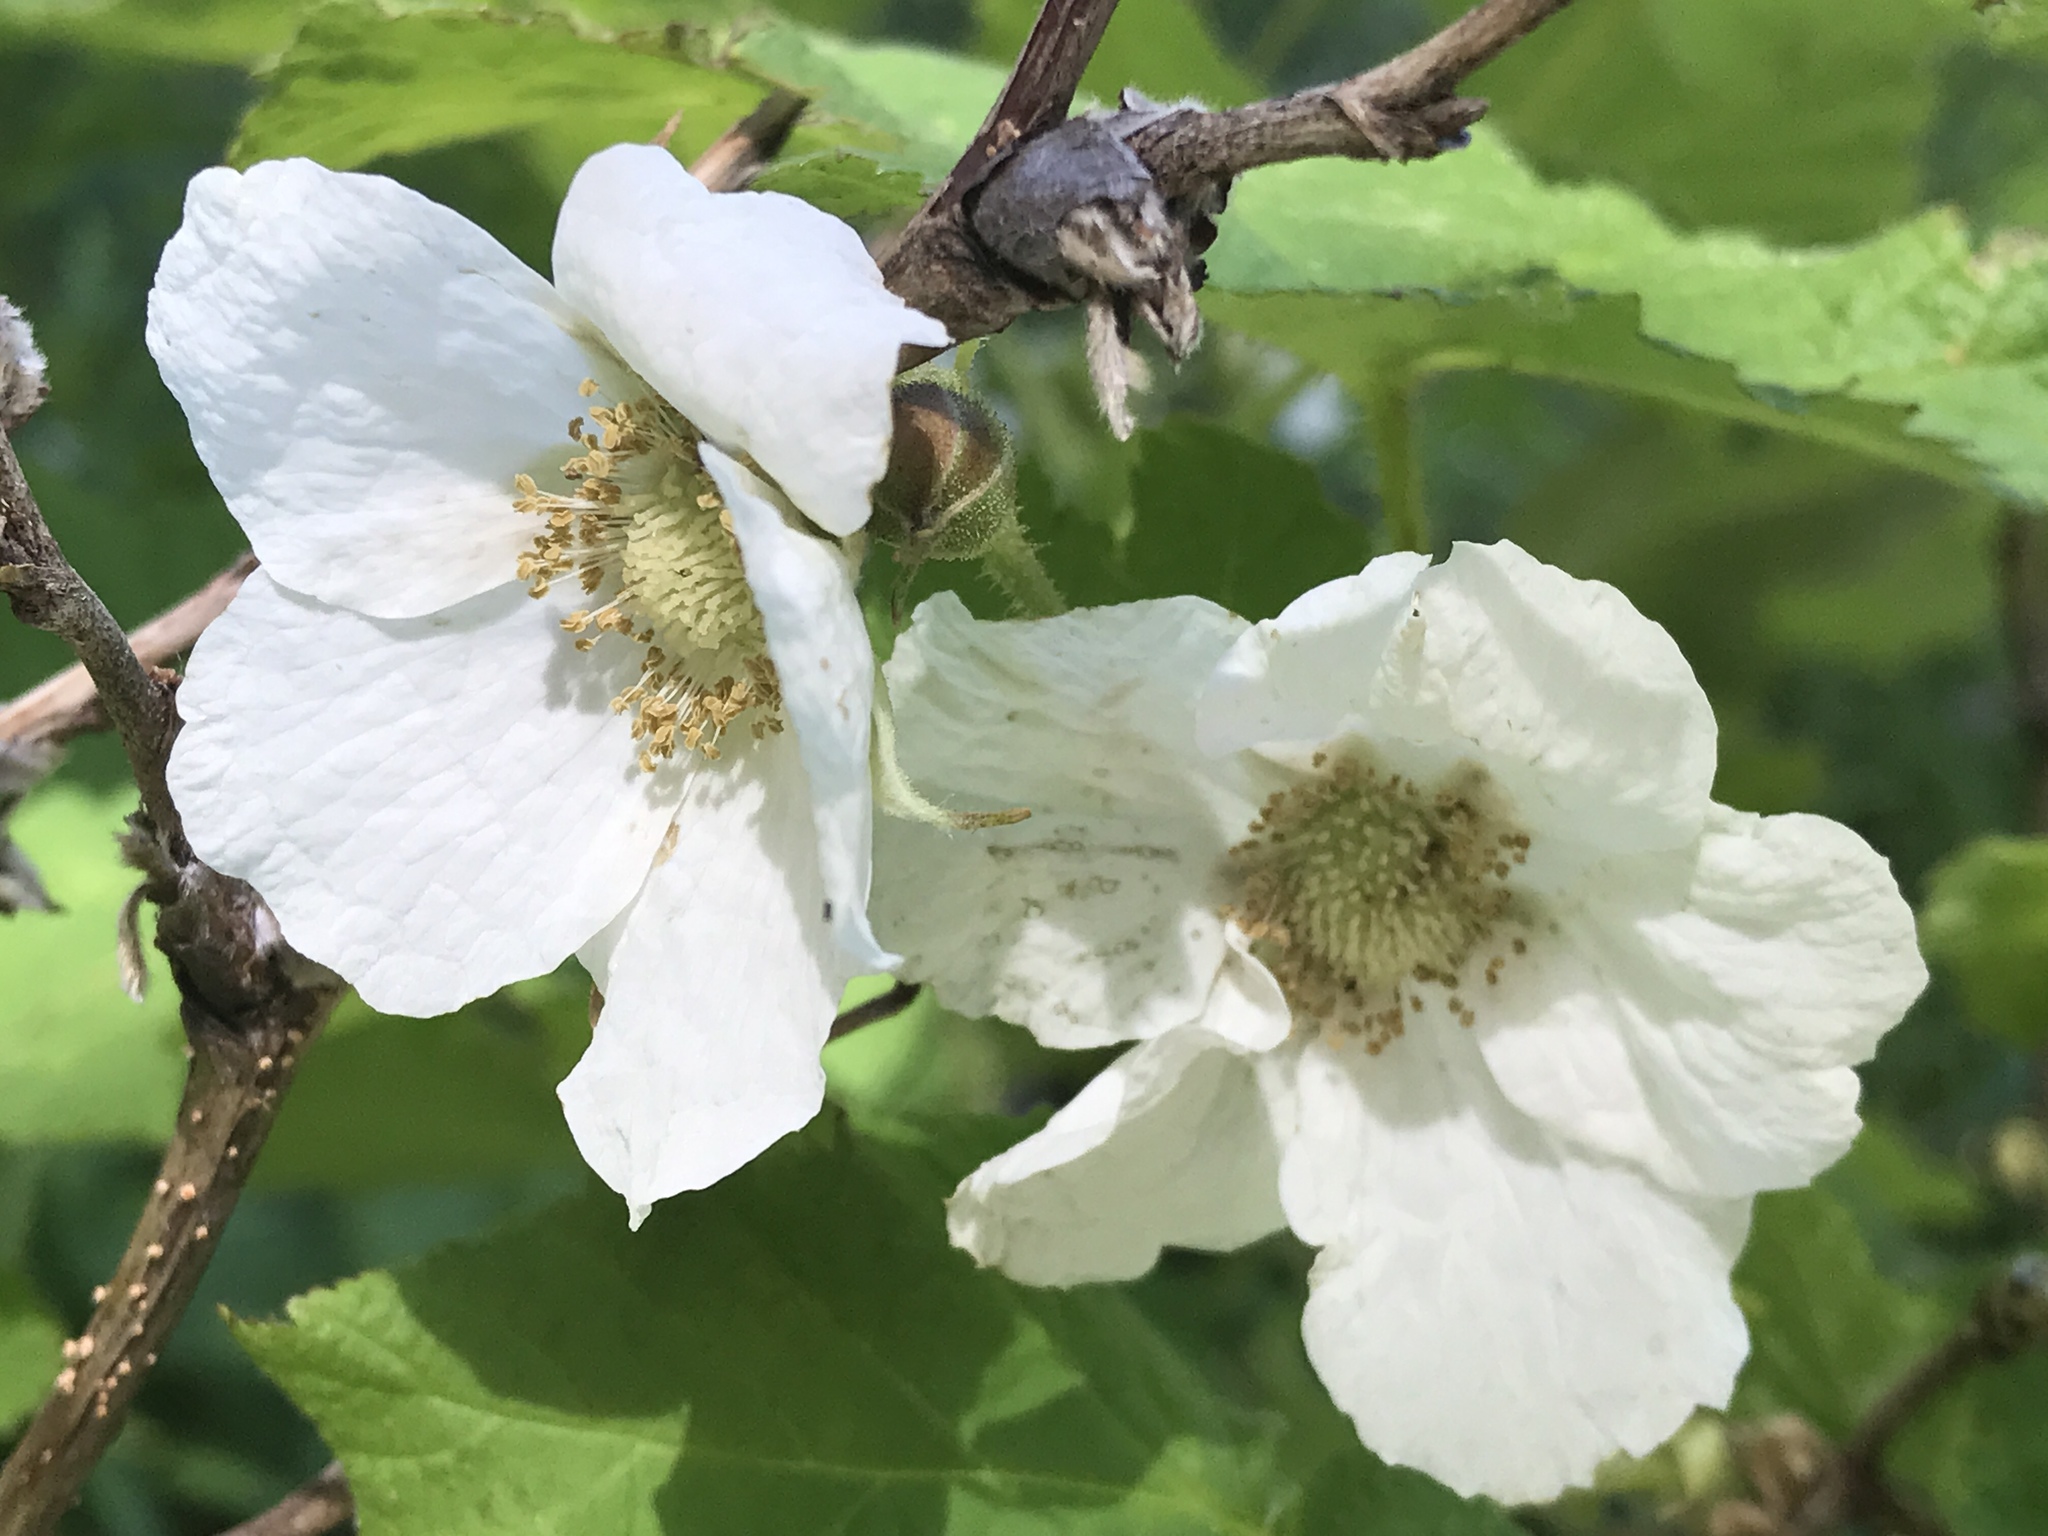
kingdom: Plantae
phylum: Tracheophyta
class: Magnoliopsida
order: Rosales
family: Rosaceae
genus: Rubus
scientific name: Rubus parviflorus
